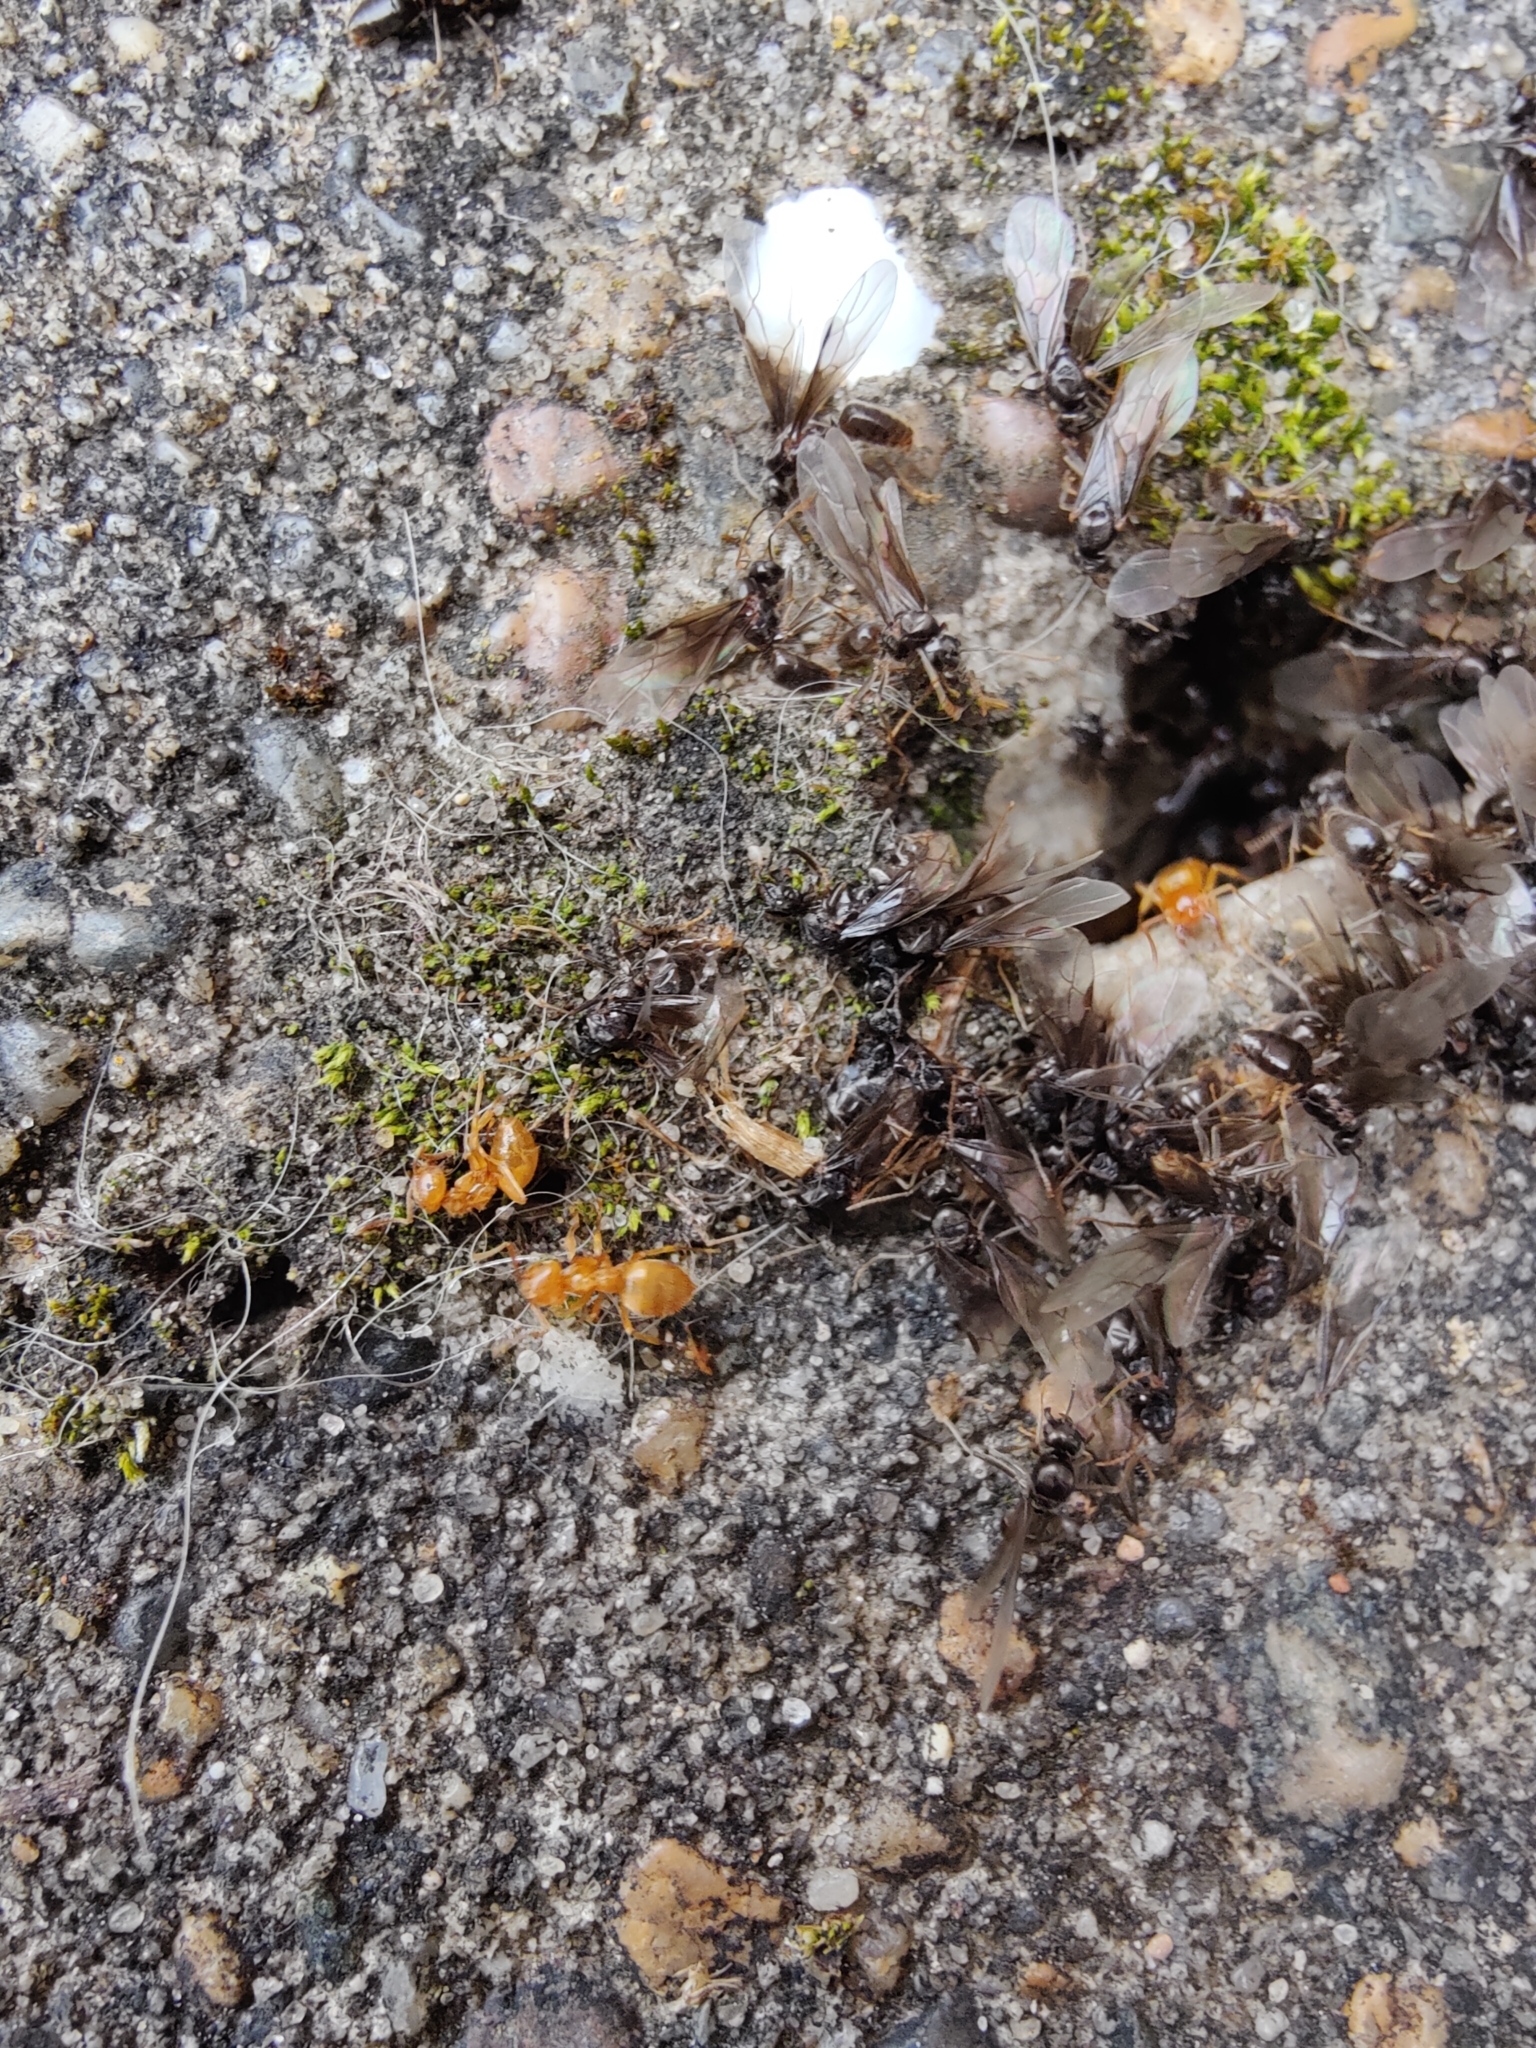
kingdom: Animalia
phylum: Arthropoda
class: Insecta
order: Hymenoptera
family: Formicidae
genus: Lasius
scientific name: Lasius flavus
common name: Blond field ant
